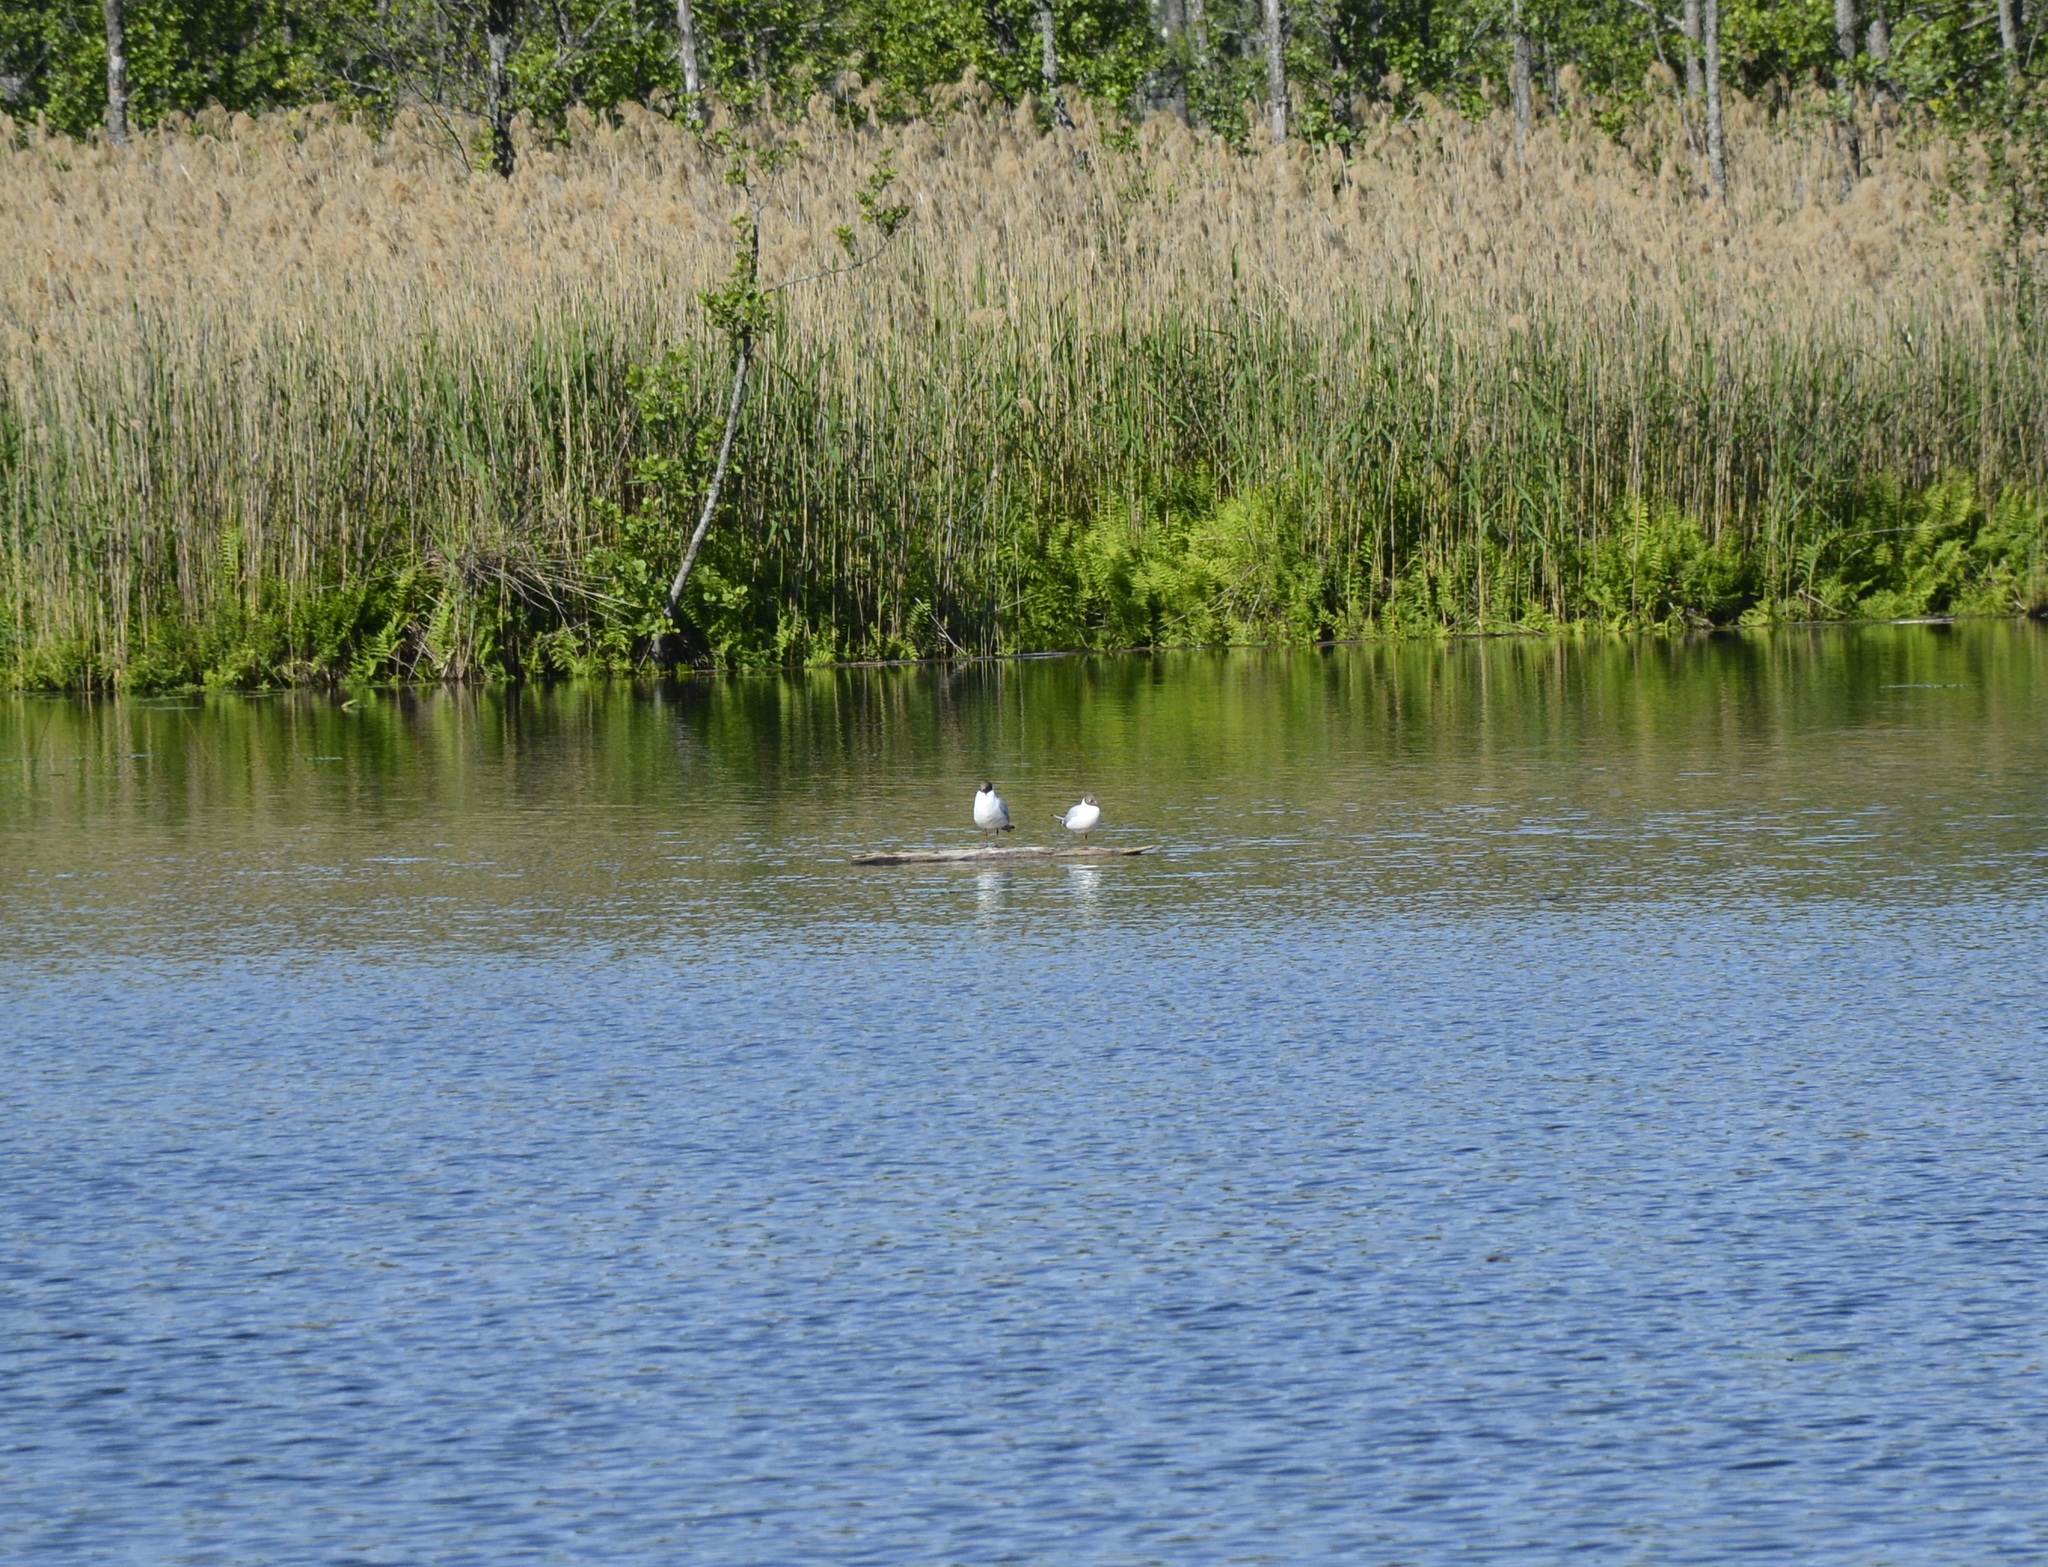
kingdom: Animalia
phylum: Chordata
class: Aves
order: Charadriiformes
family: Laridae
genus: Chroicocephalus
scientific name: Chroicocephalus ridibundus
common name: Black-headed gull
